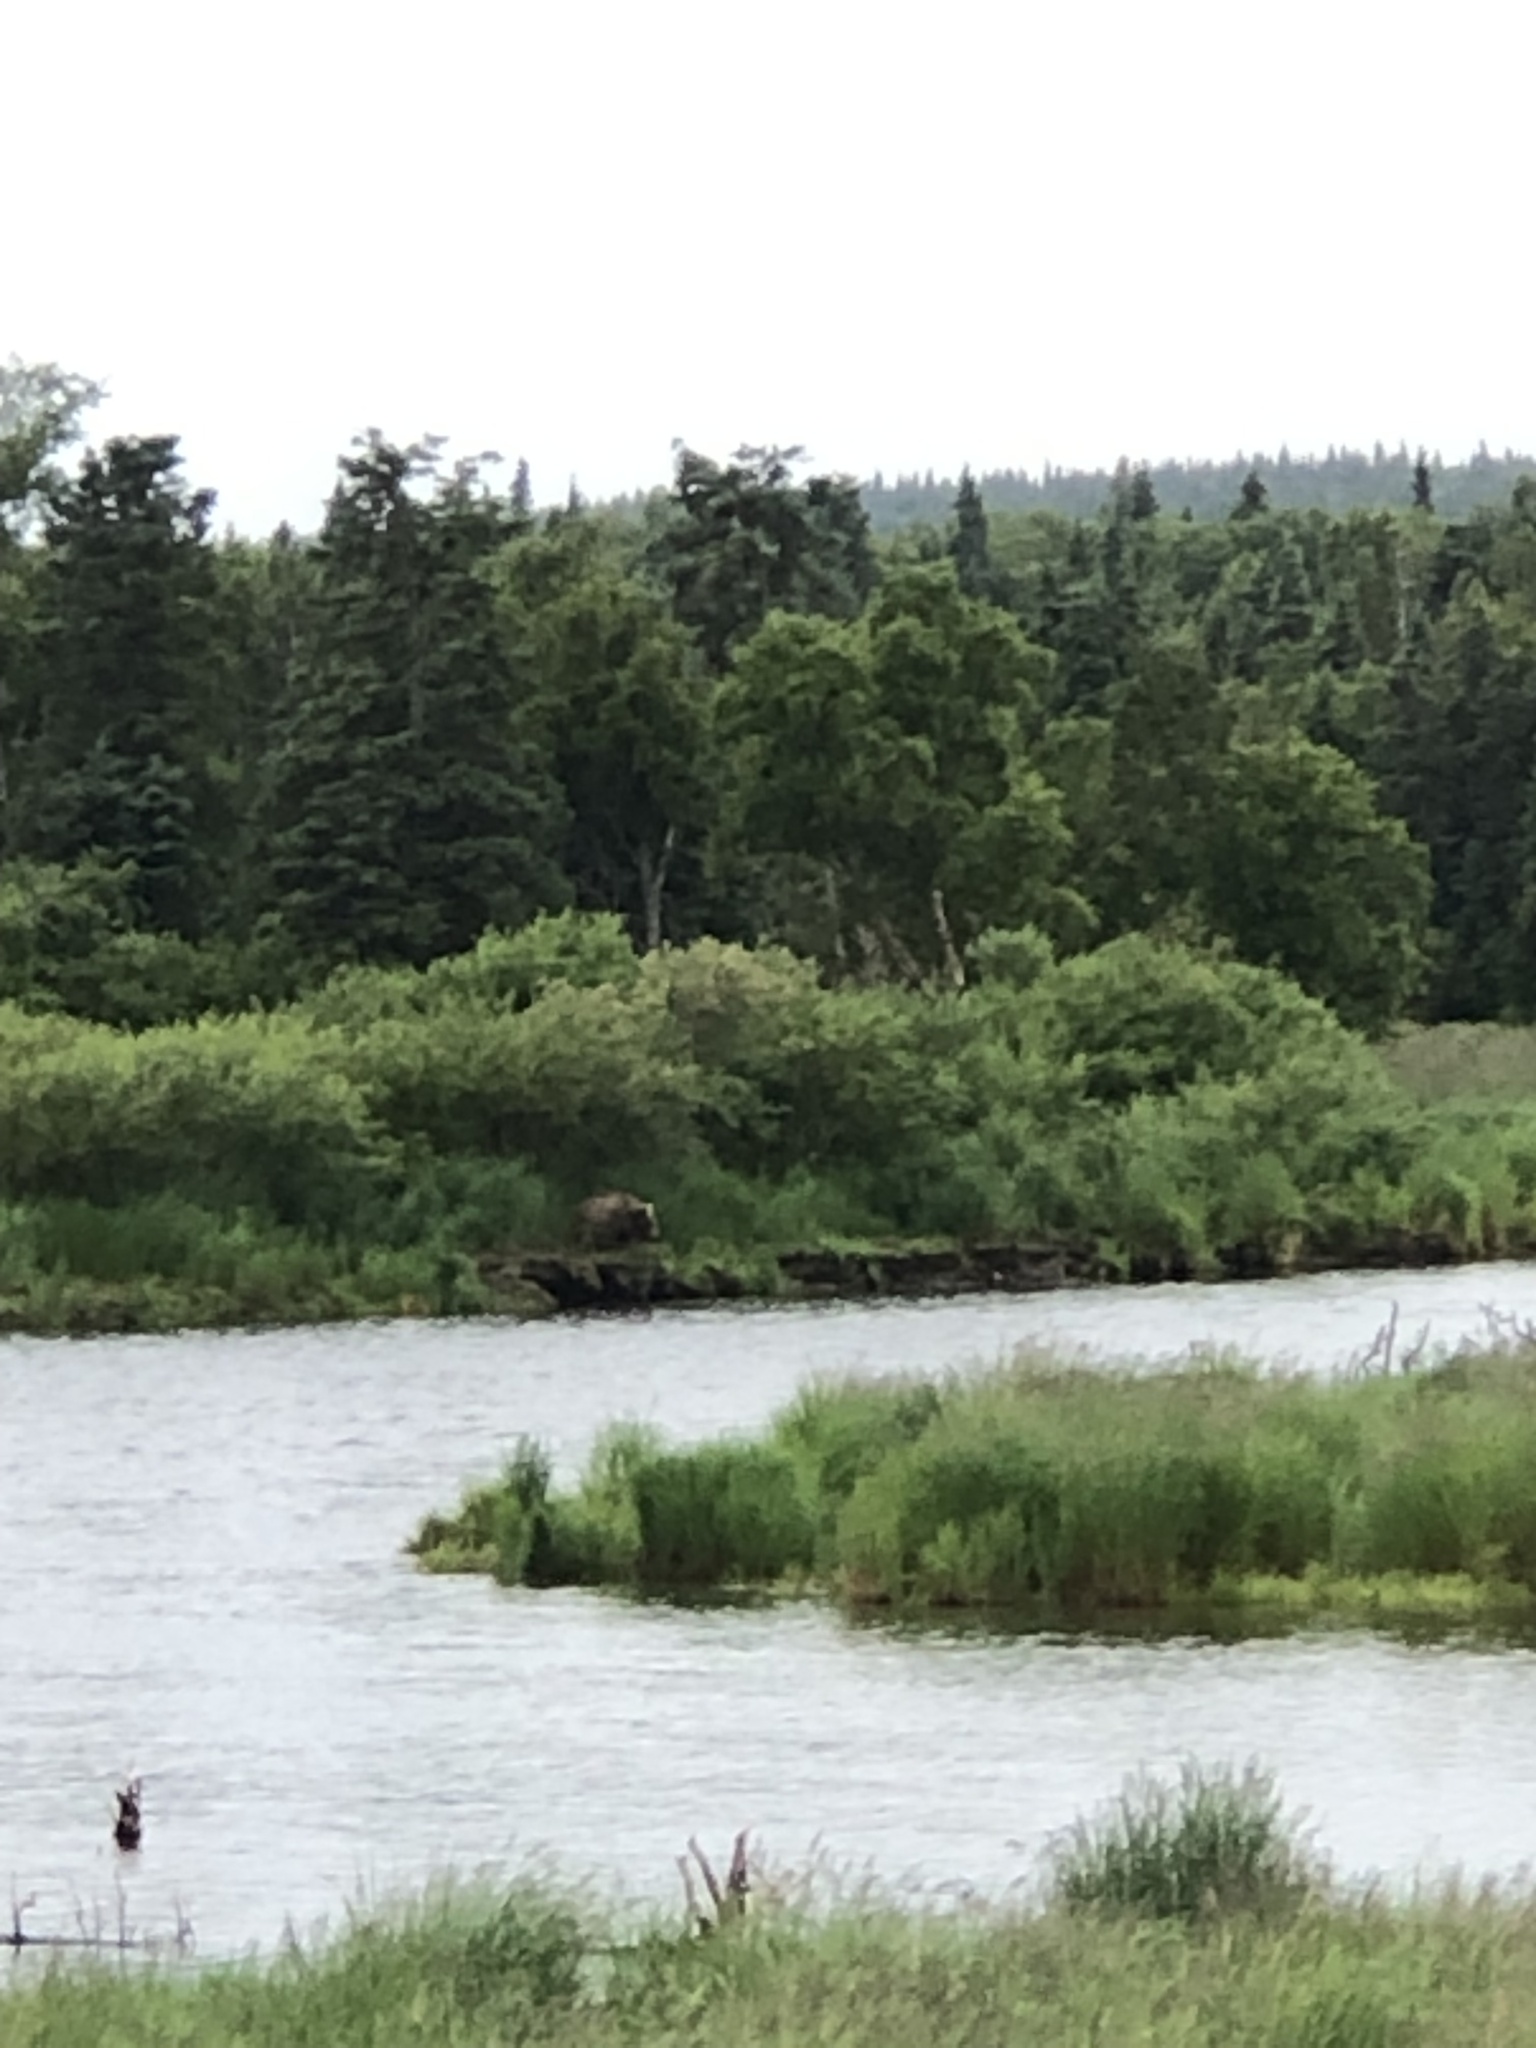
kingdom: Animalia
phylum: Chordata
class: Mammalia
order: Carnivora
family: Ursidae
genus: Ursus
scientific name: Ursus arctos
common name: Brown bear
